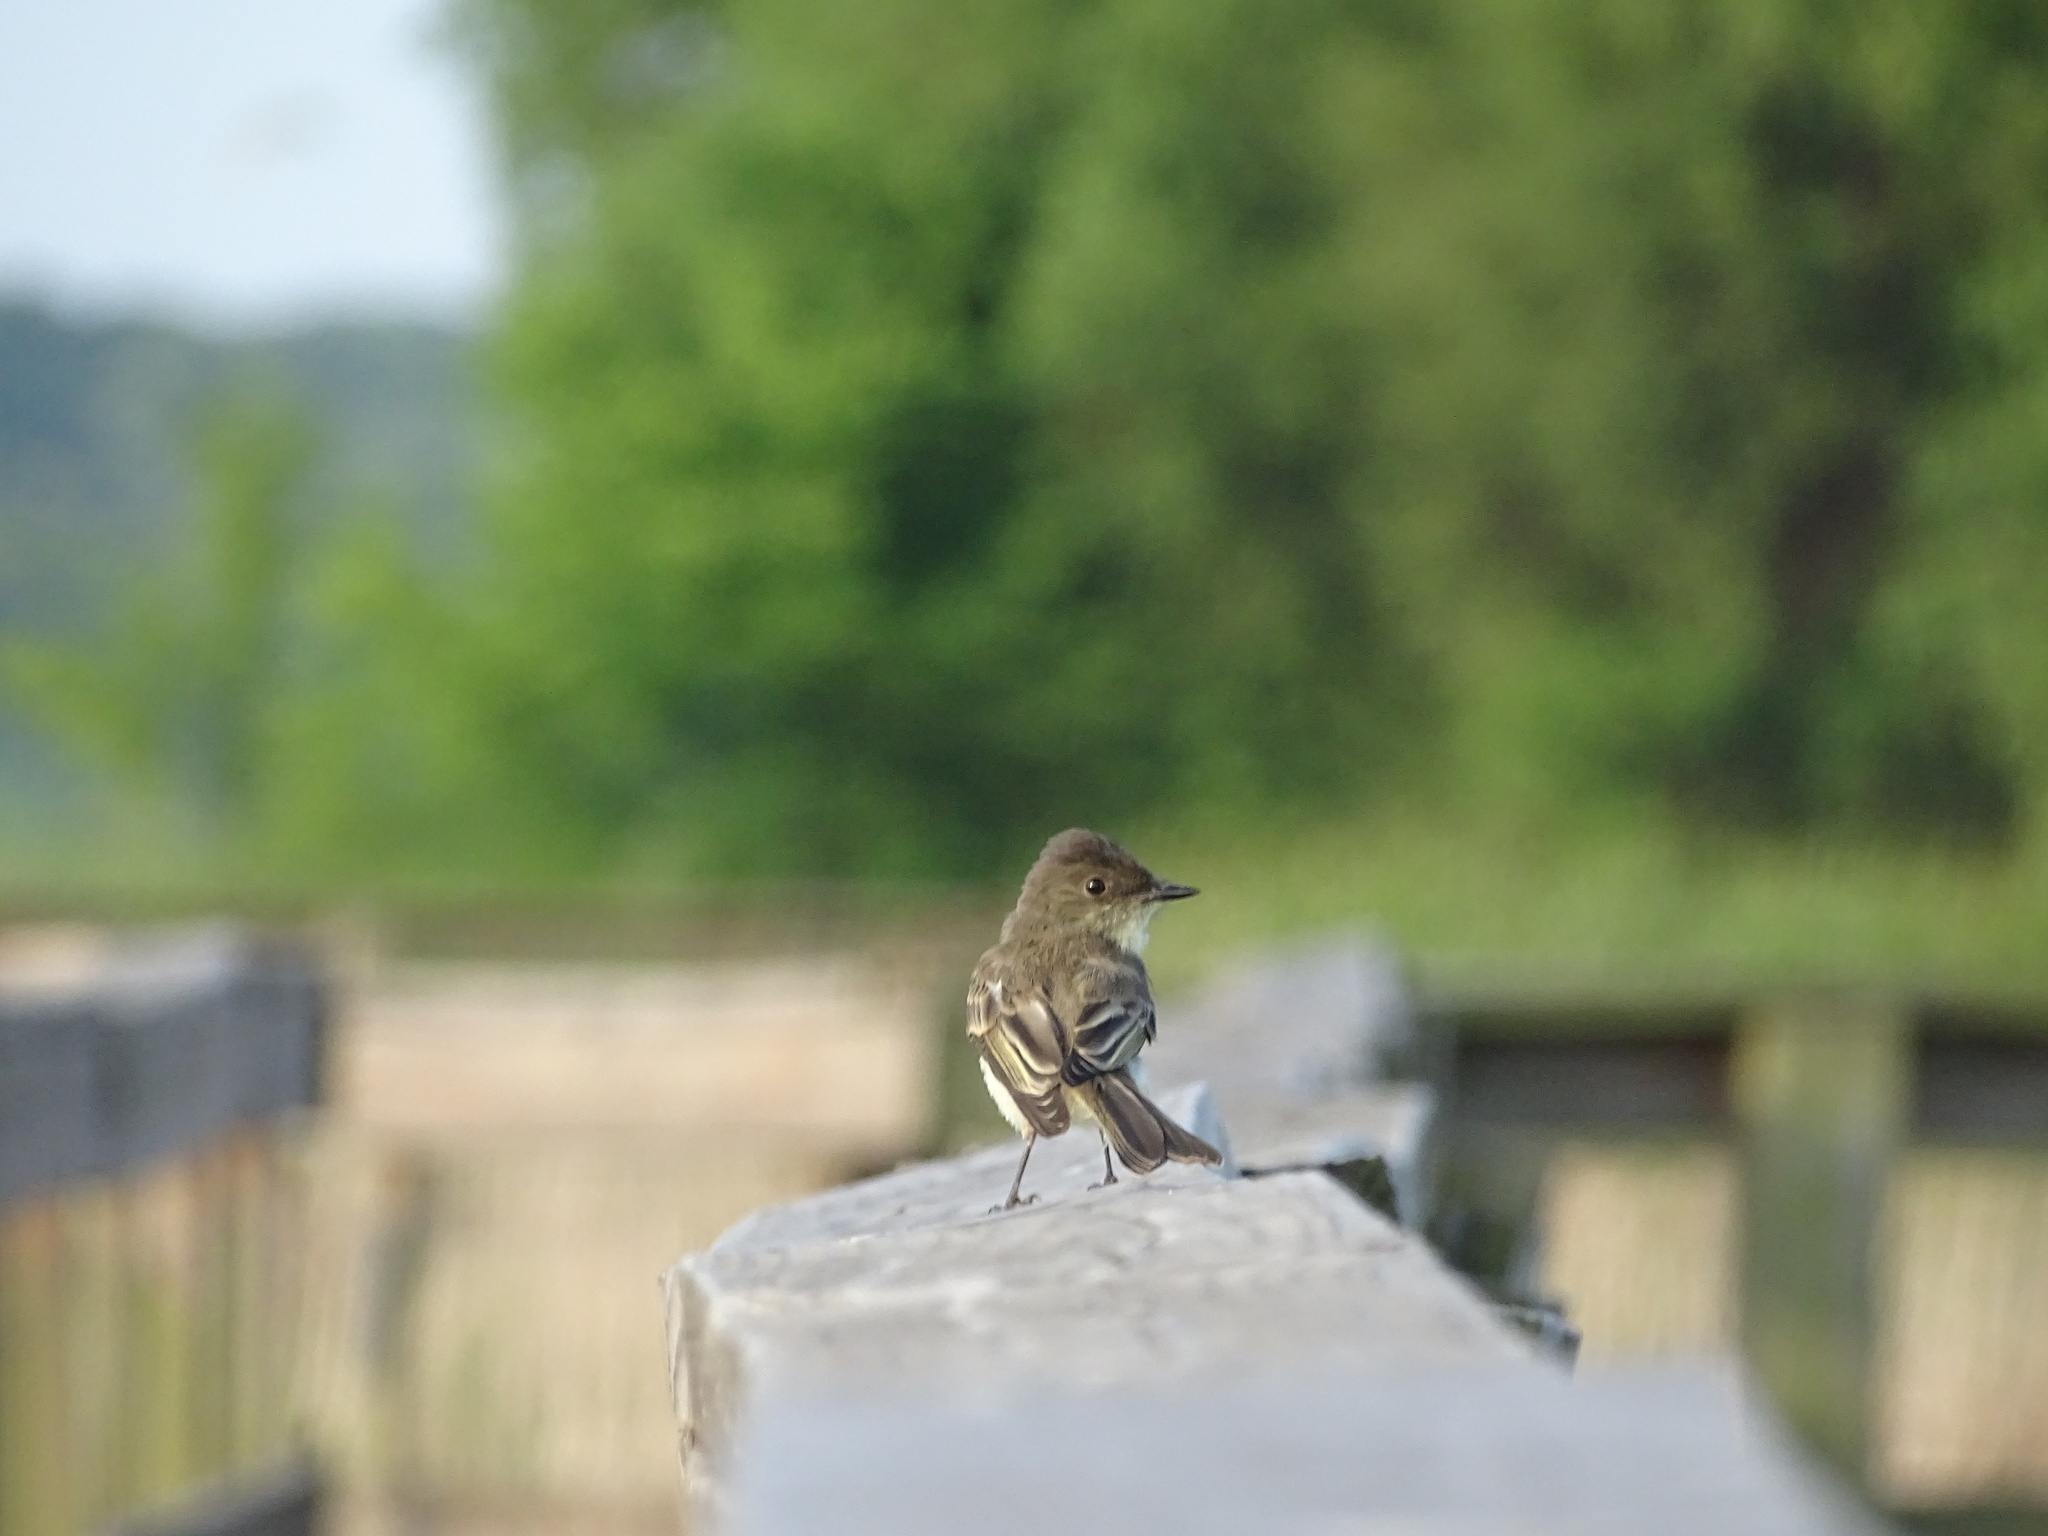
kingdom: Animalia
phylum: Chordata
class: Aves
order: Passeriformes
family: Tyrannidae
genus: Sayornis
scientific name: Sayornis phoebe
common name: Eastern phoebe
